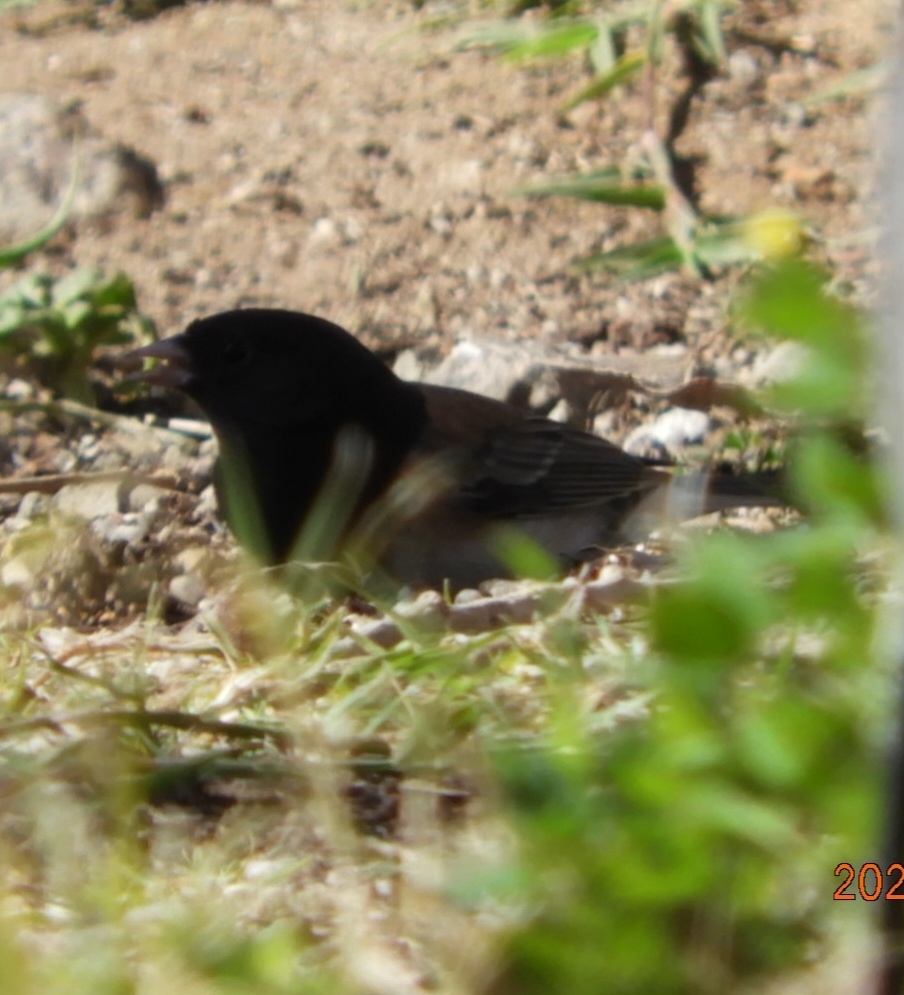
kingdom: Animalia
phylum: Chordata
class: Aves
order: Passeriformes
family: Passerellidae
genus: Junco
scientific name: Junco hyemalis
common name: Dark-eyed junco
